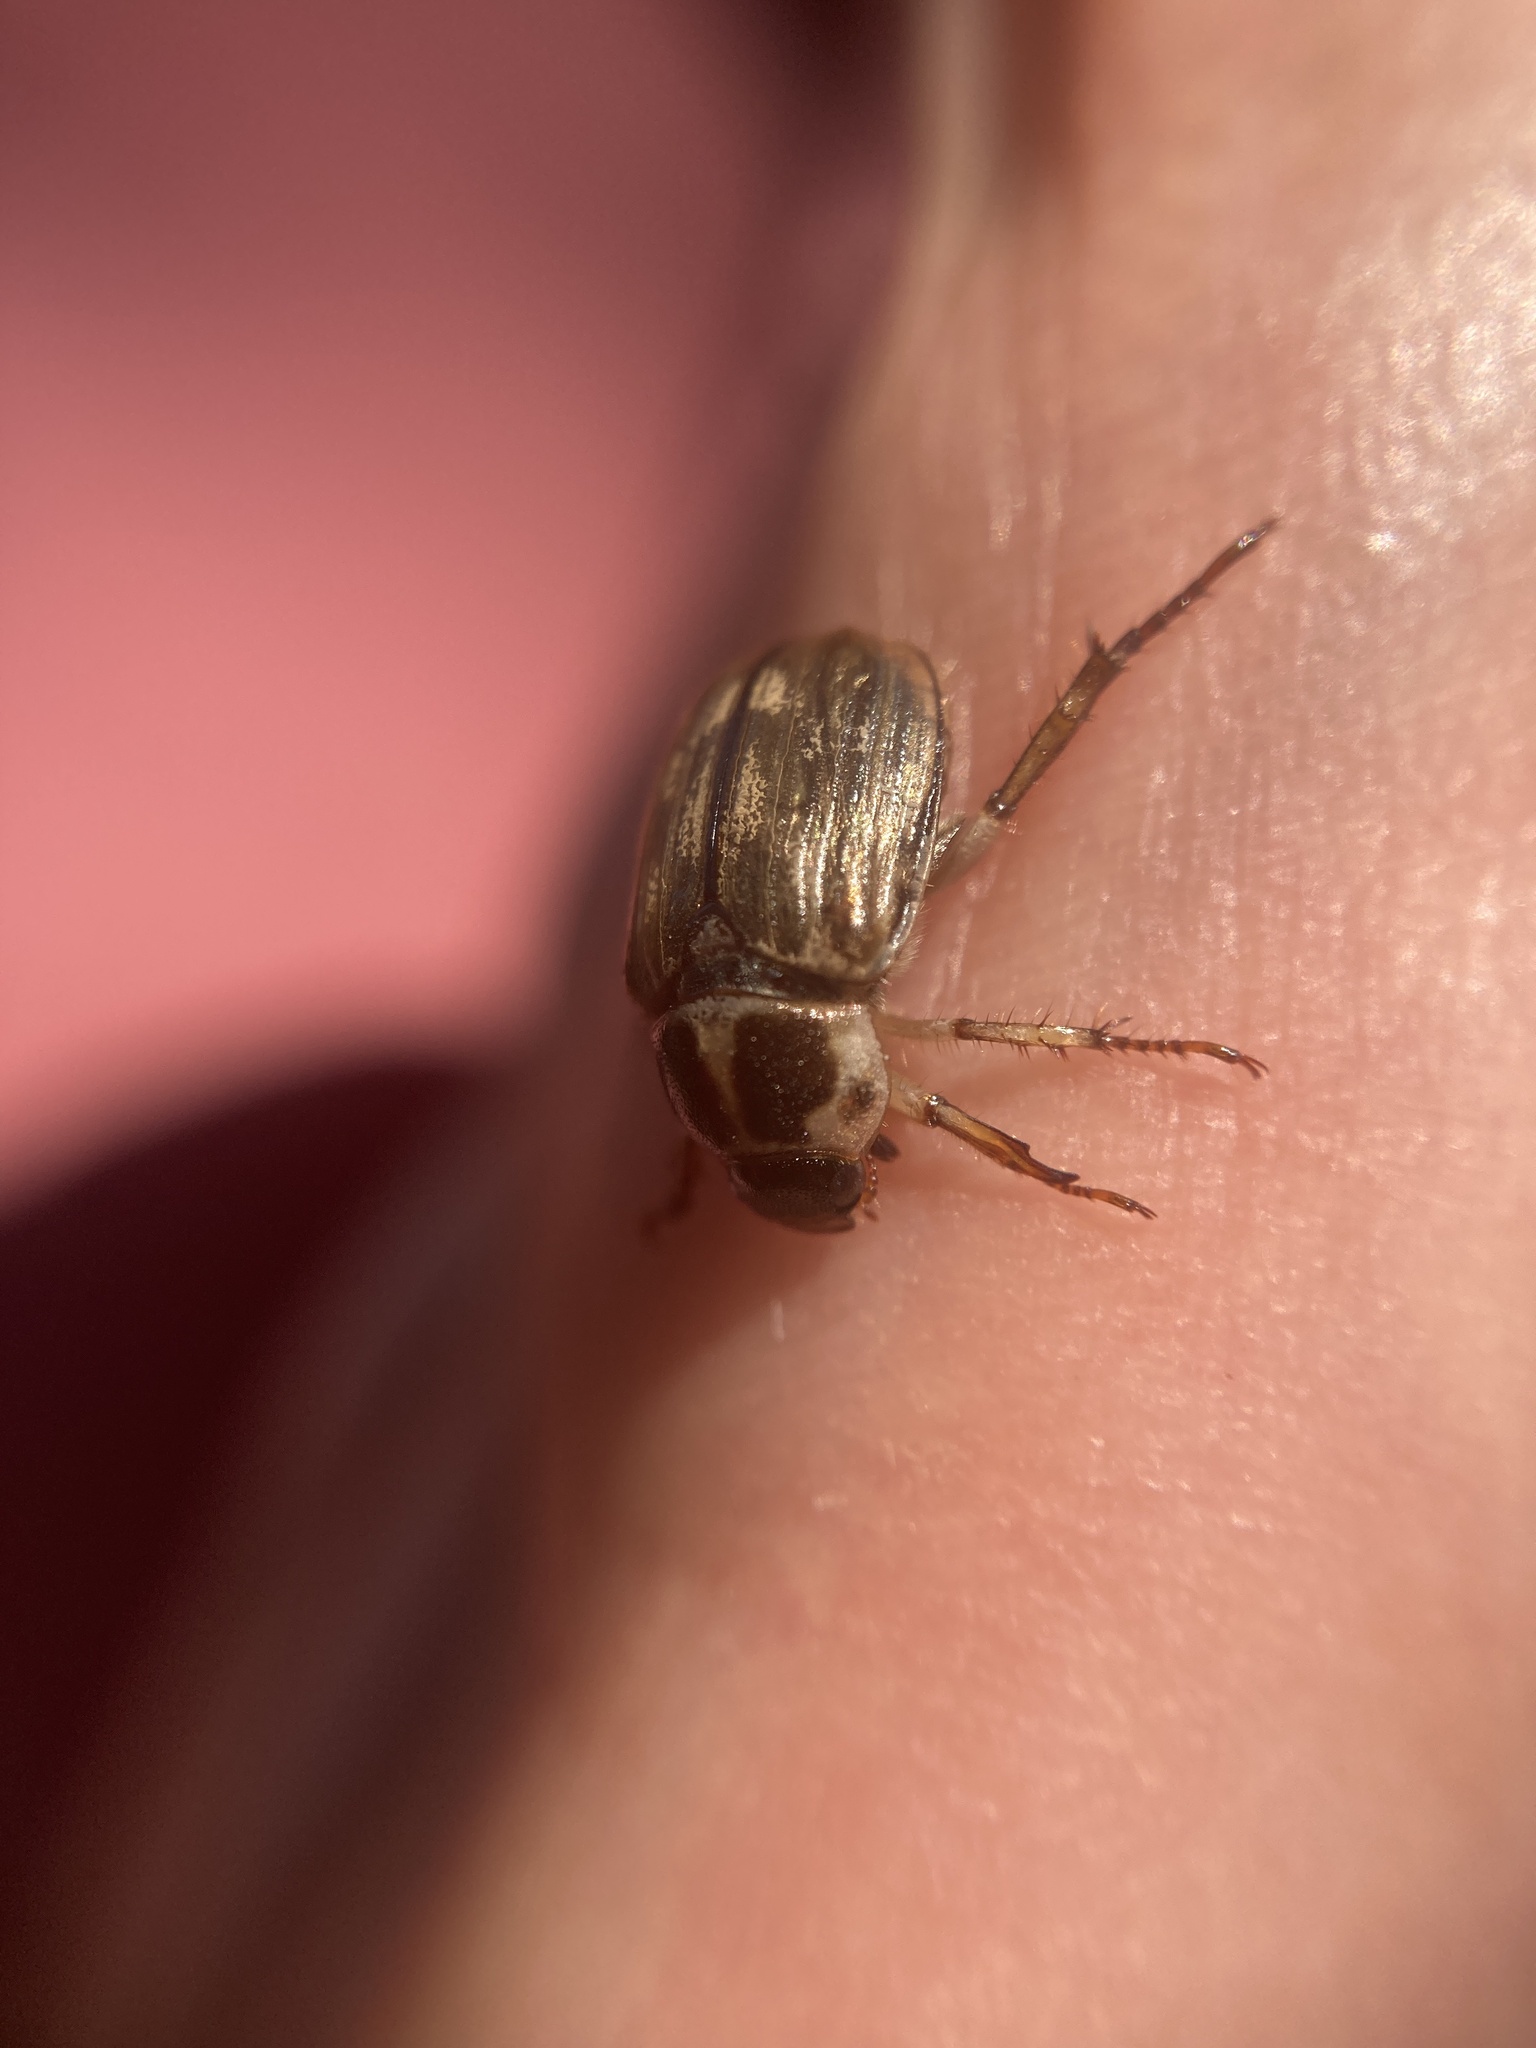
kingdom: Animalia
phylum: Arthropoda
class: Insecta
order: Coleoptera
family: Scarabaeidae
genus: Exomala
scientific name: Exomala orientalis
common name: Oriental beetle
